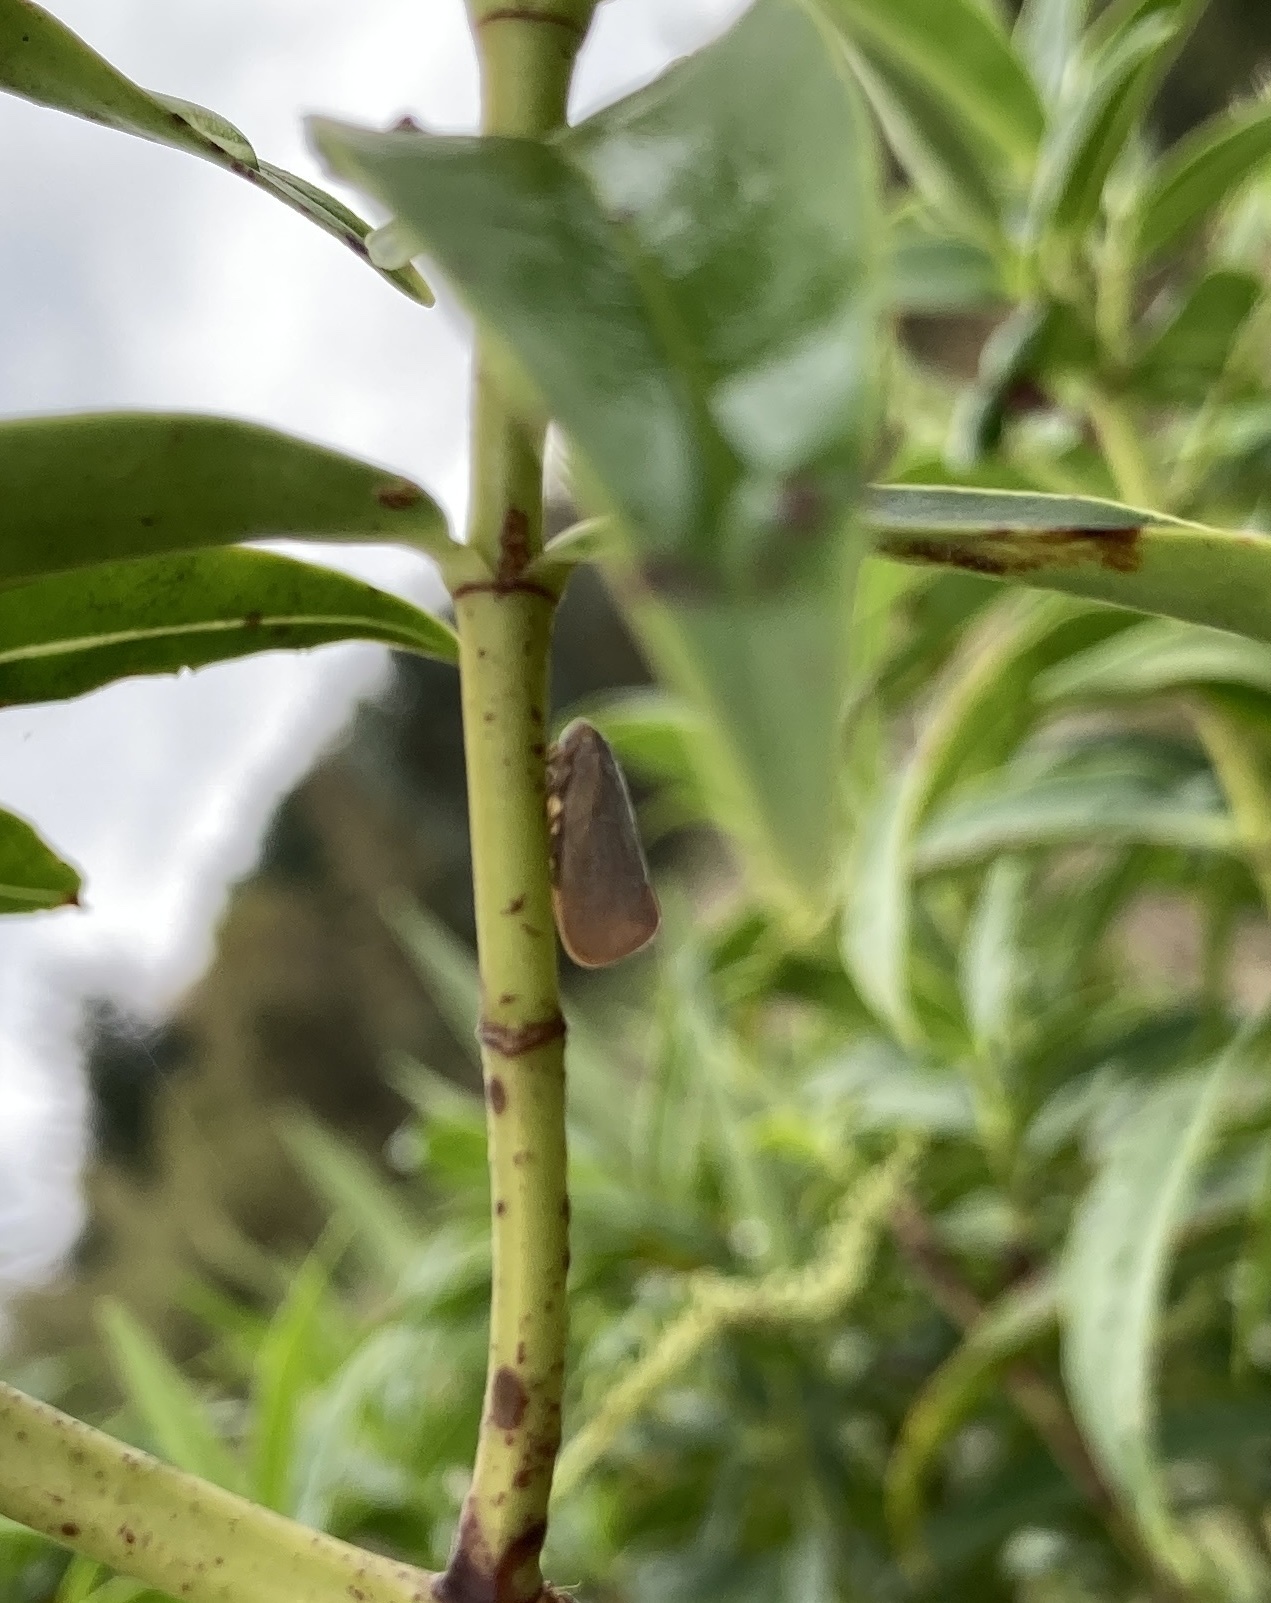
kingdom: Animalia
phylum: Arthropoda
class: Insecta
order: Hemiptera
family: Flatidae
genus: Anzora
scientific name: Anzora unicolor
